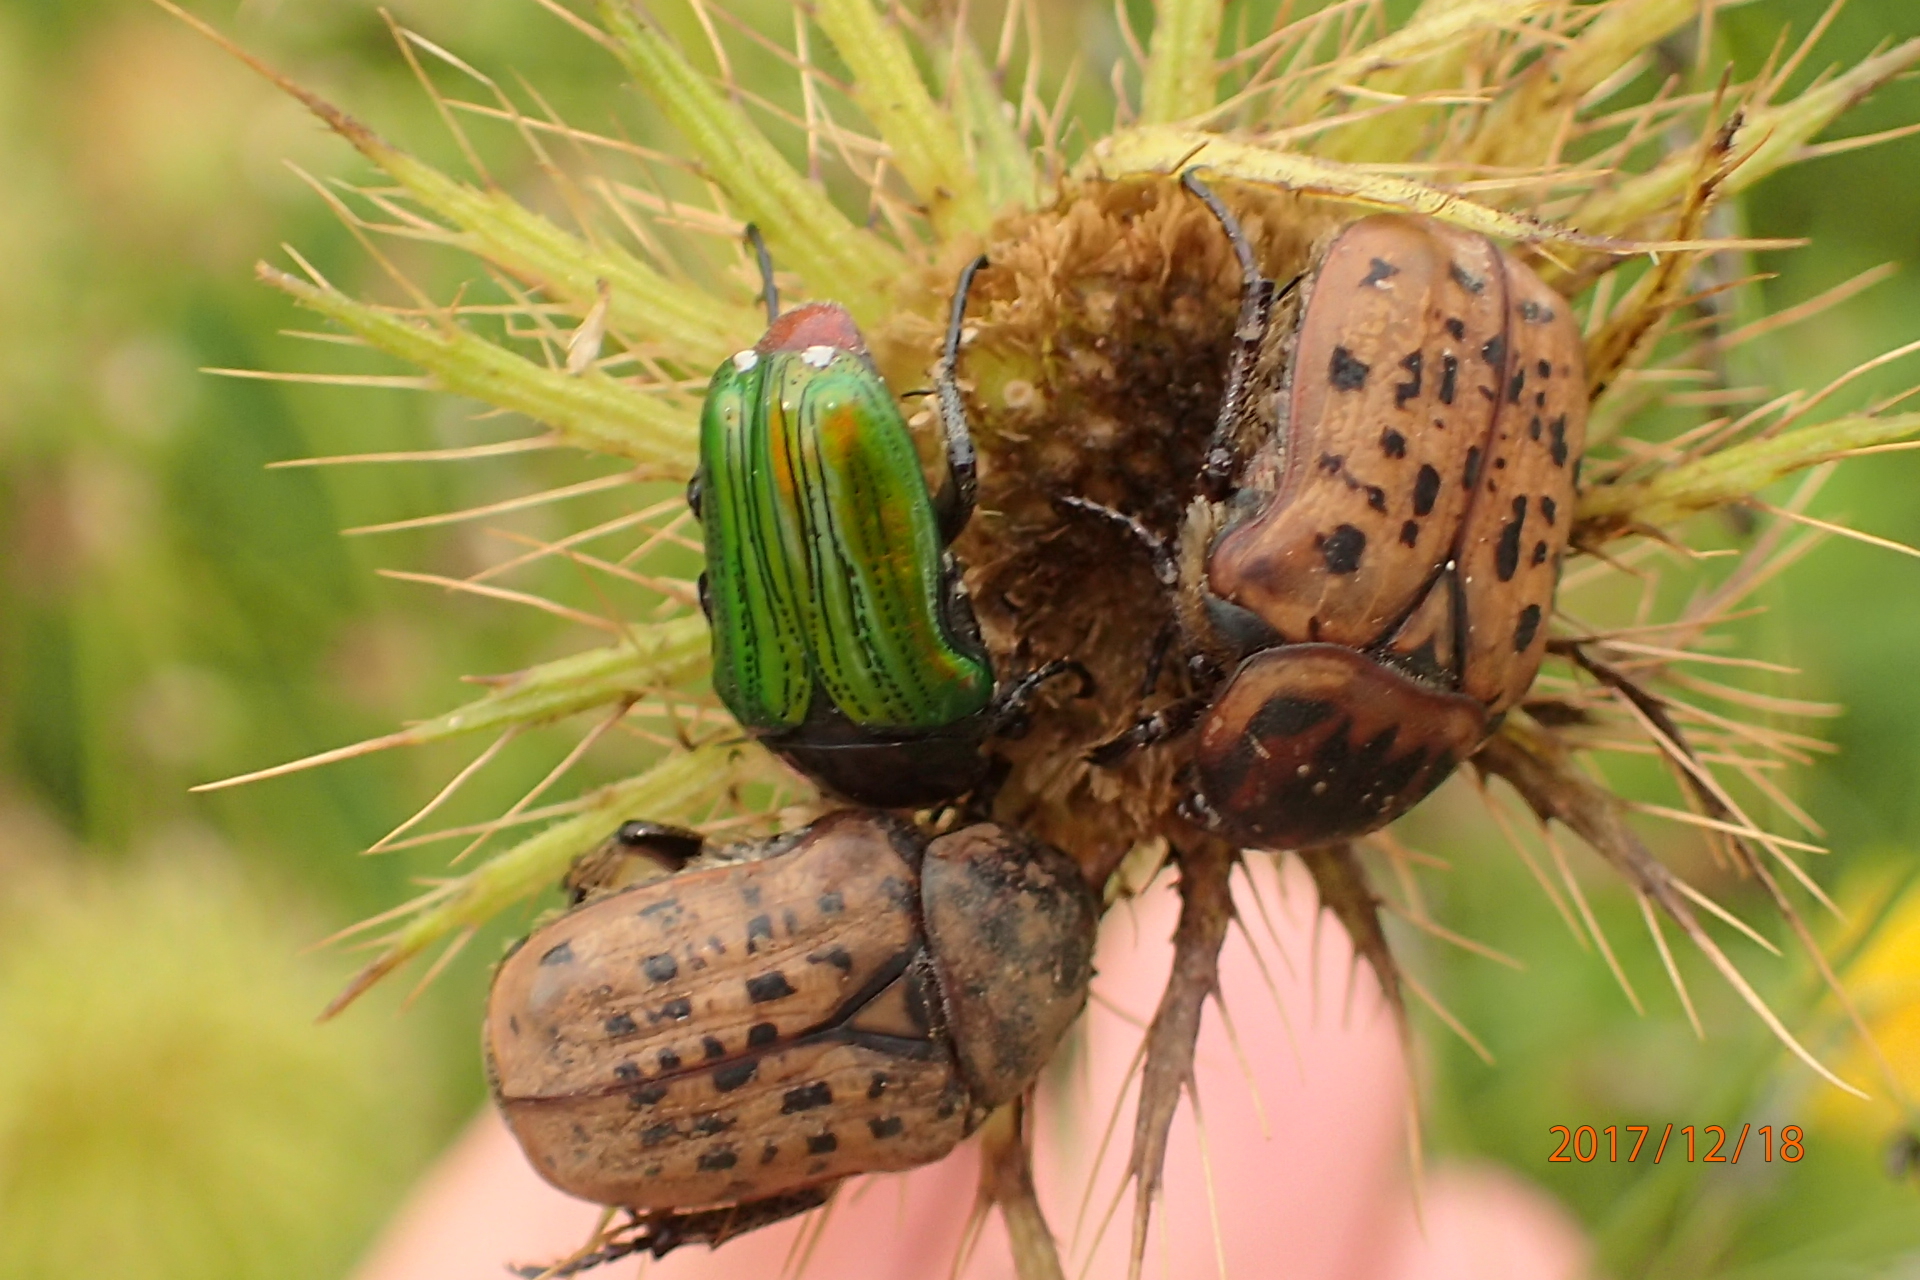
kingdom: Animalia
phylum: Arthropoda
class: Insecta
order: Coleoptera
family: Scarabaeidae
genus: Atrichelaphinis
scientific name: Atrichelaphinis tigrina
